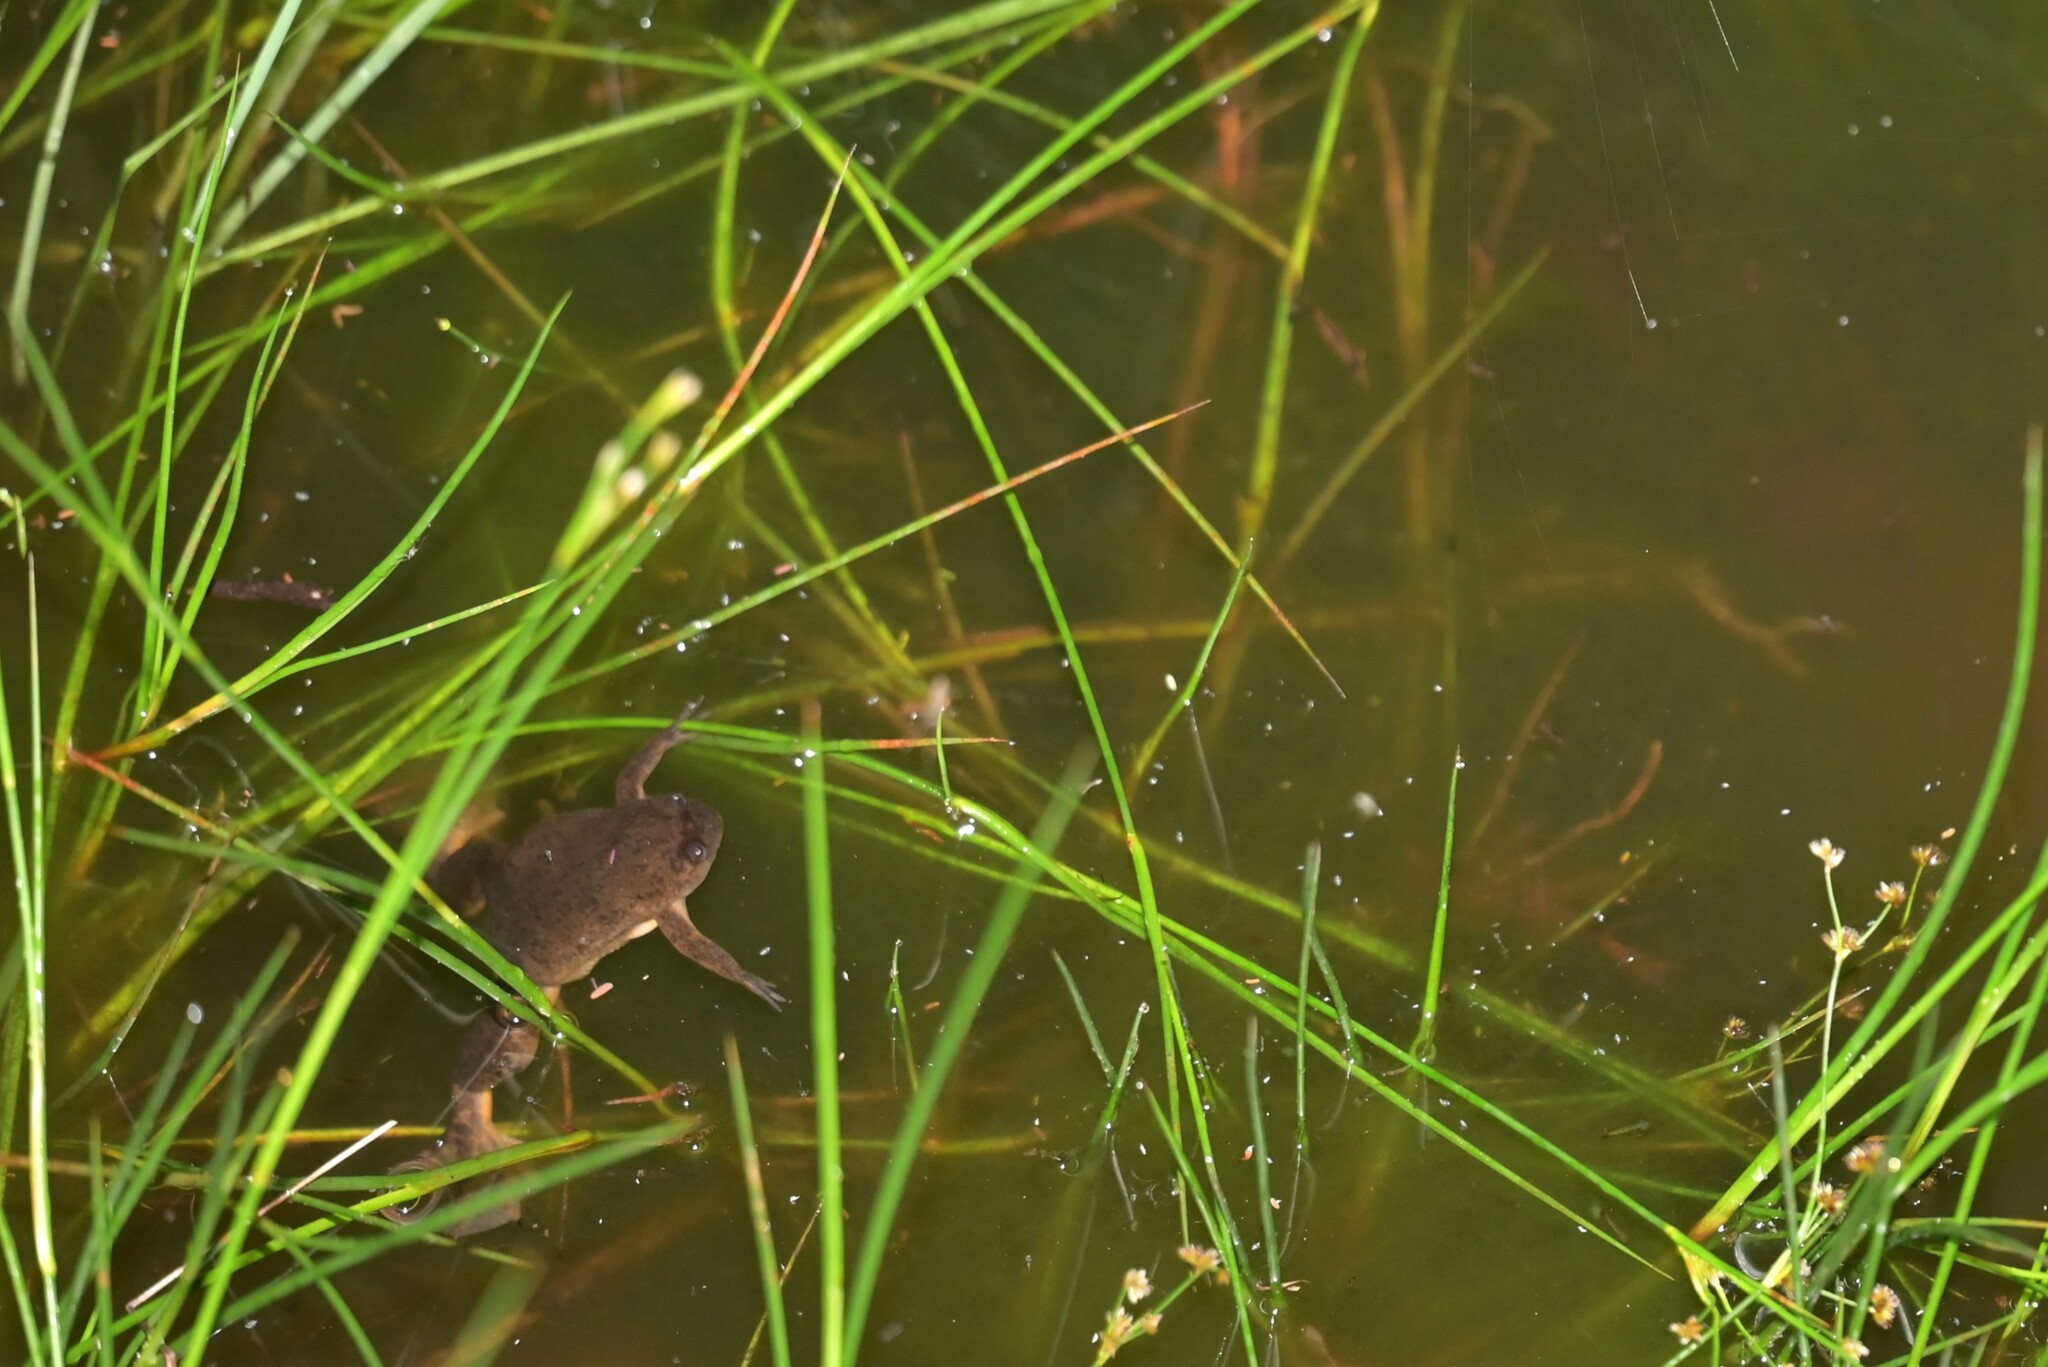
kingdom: Animalia
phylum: Chordata
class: Amphibia
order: Anura
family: Pipidae
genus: Xenopus
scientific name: Xenopus borealis
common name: Marsabit clawed frog
